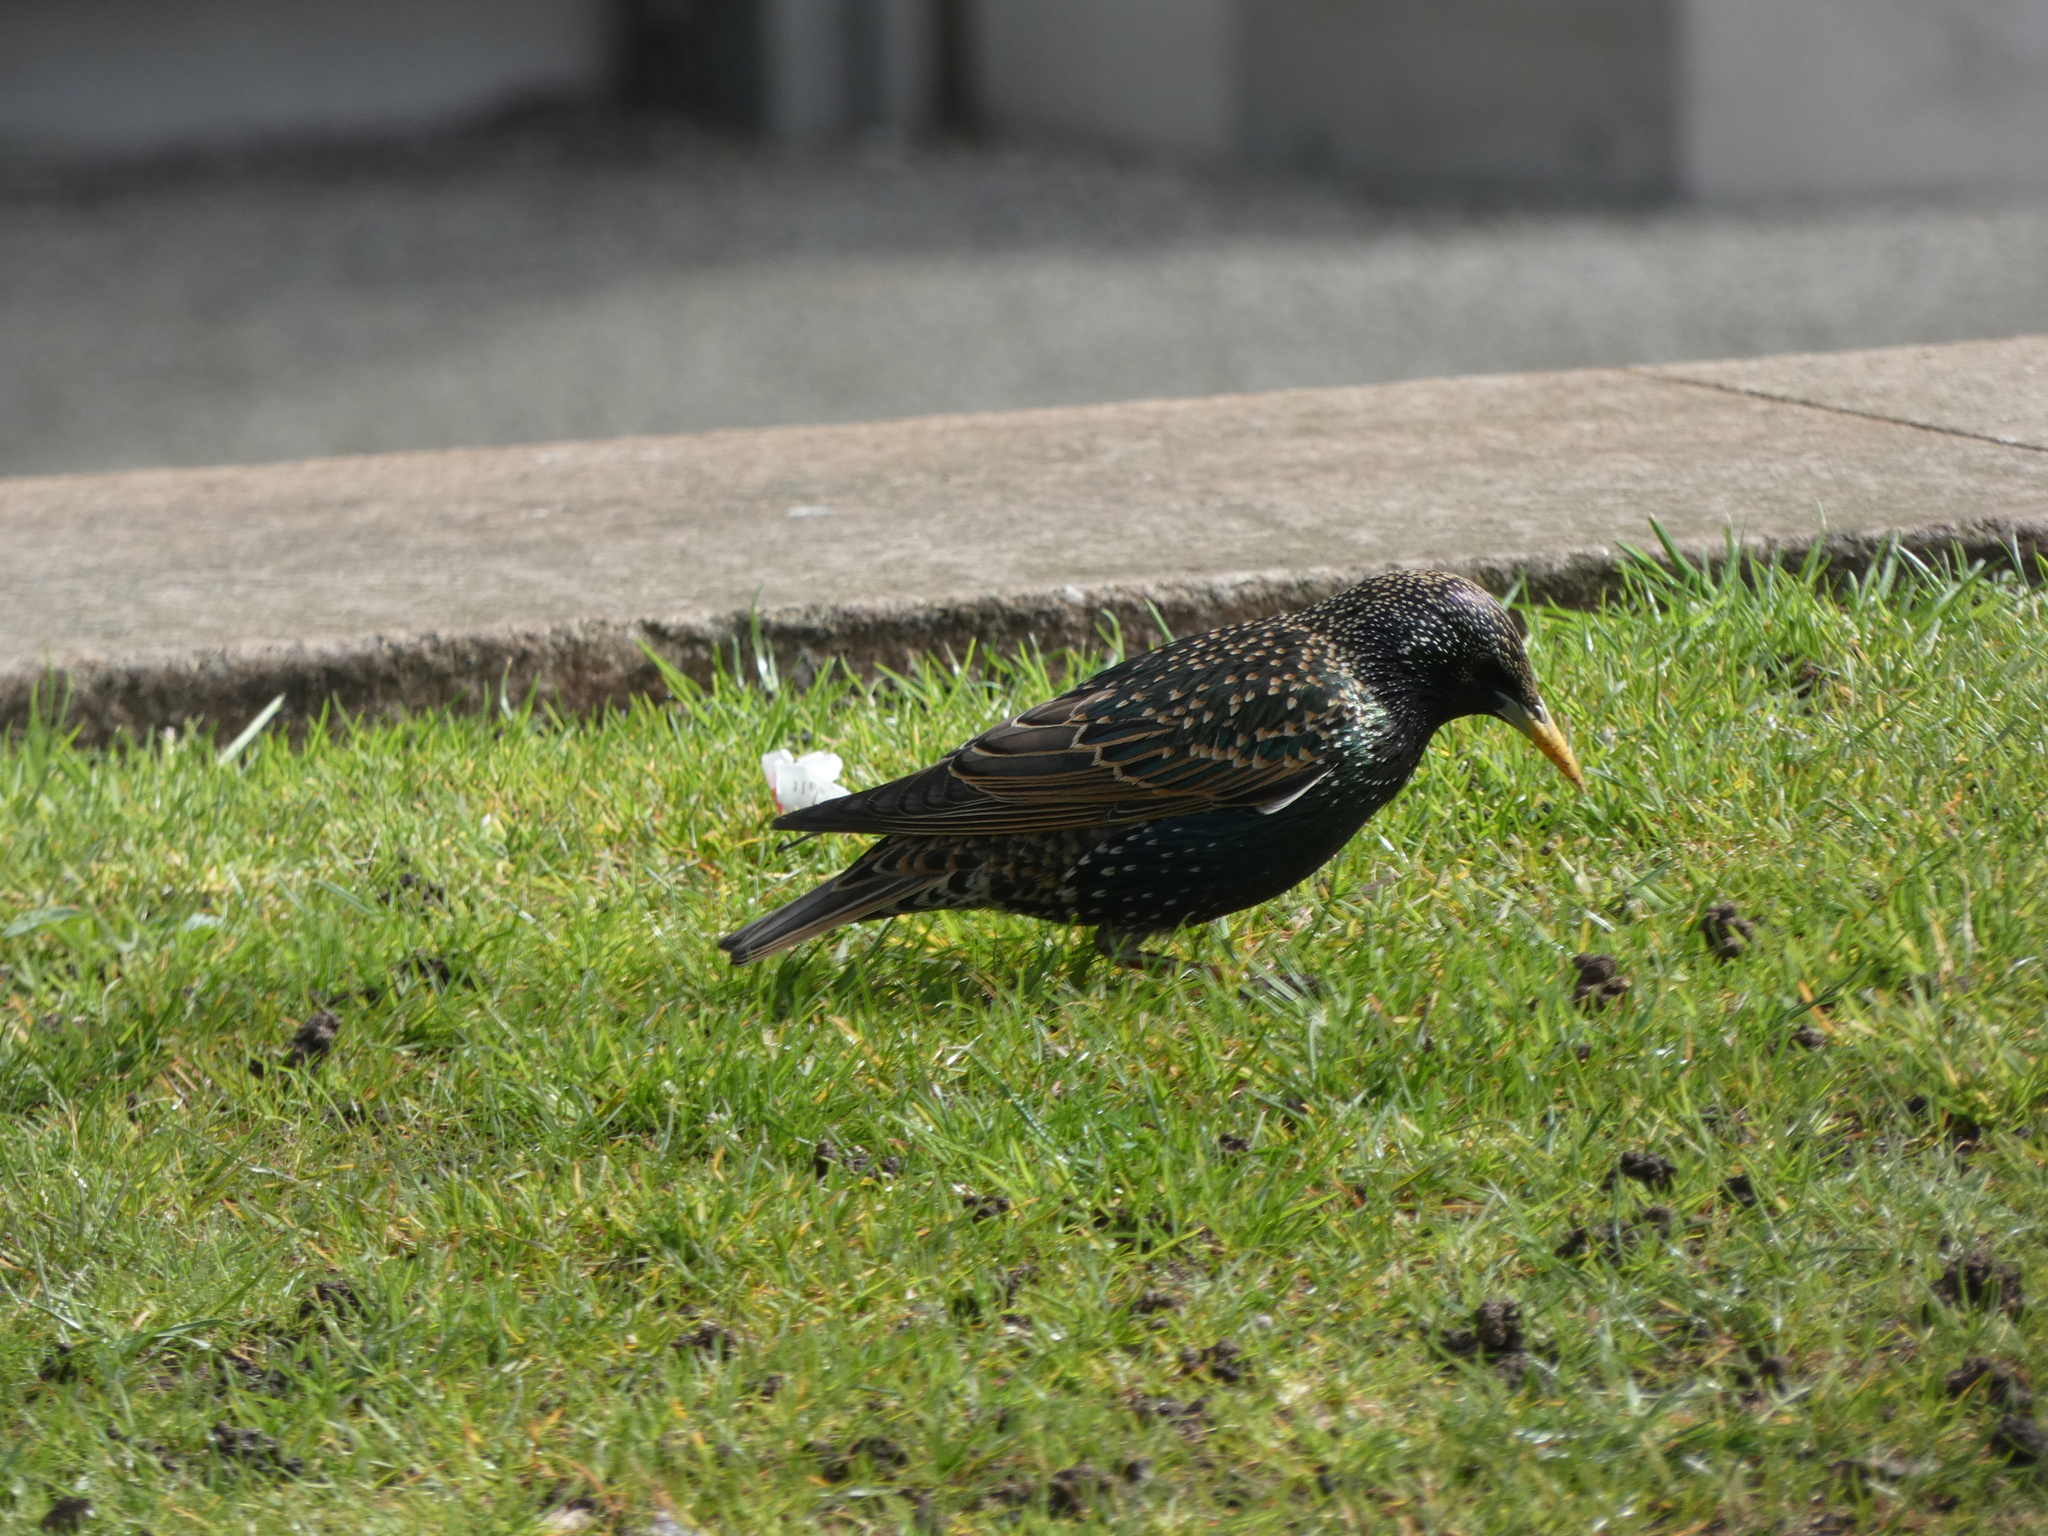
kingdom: Animalia
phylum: Chordata
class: Aves
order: Passeriformes
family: Sturnidae
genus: Sturnus
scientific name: Sturnus vulgaris
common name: Common starling
